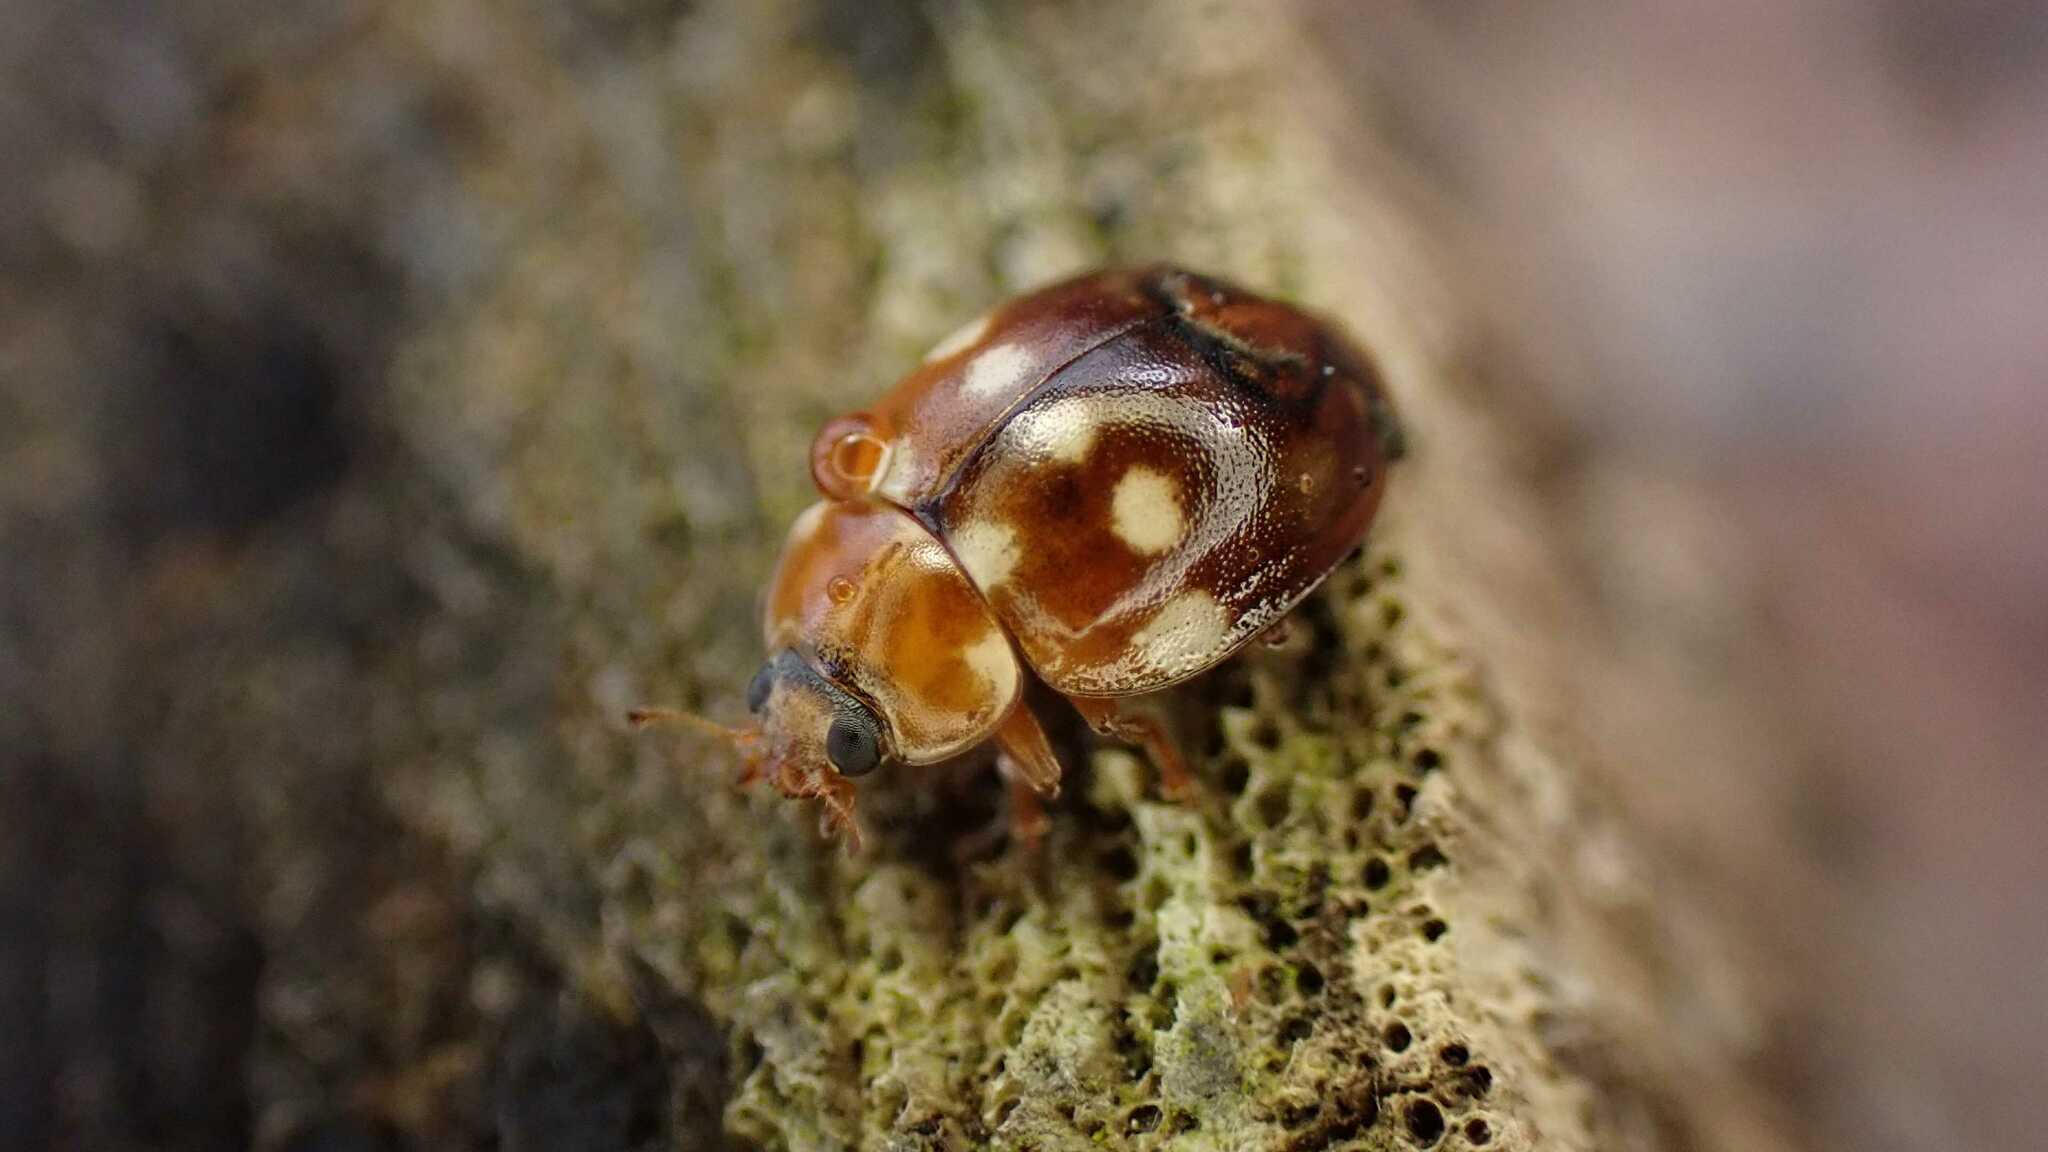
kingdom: Animalia
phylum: Arthropoda
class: Insecta
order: Coleoptera
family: Coccinellidae
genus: Calvia
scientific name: Calvia quatuordecimguttata
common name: Cream-spot ladybird
